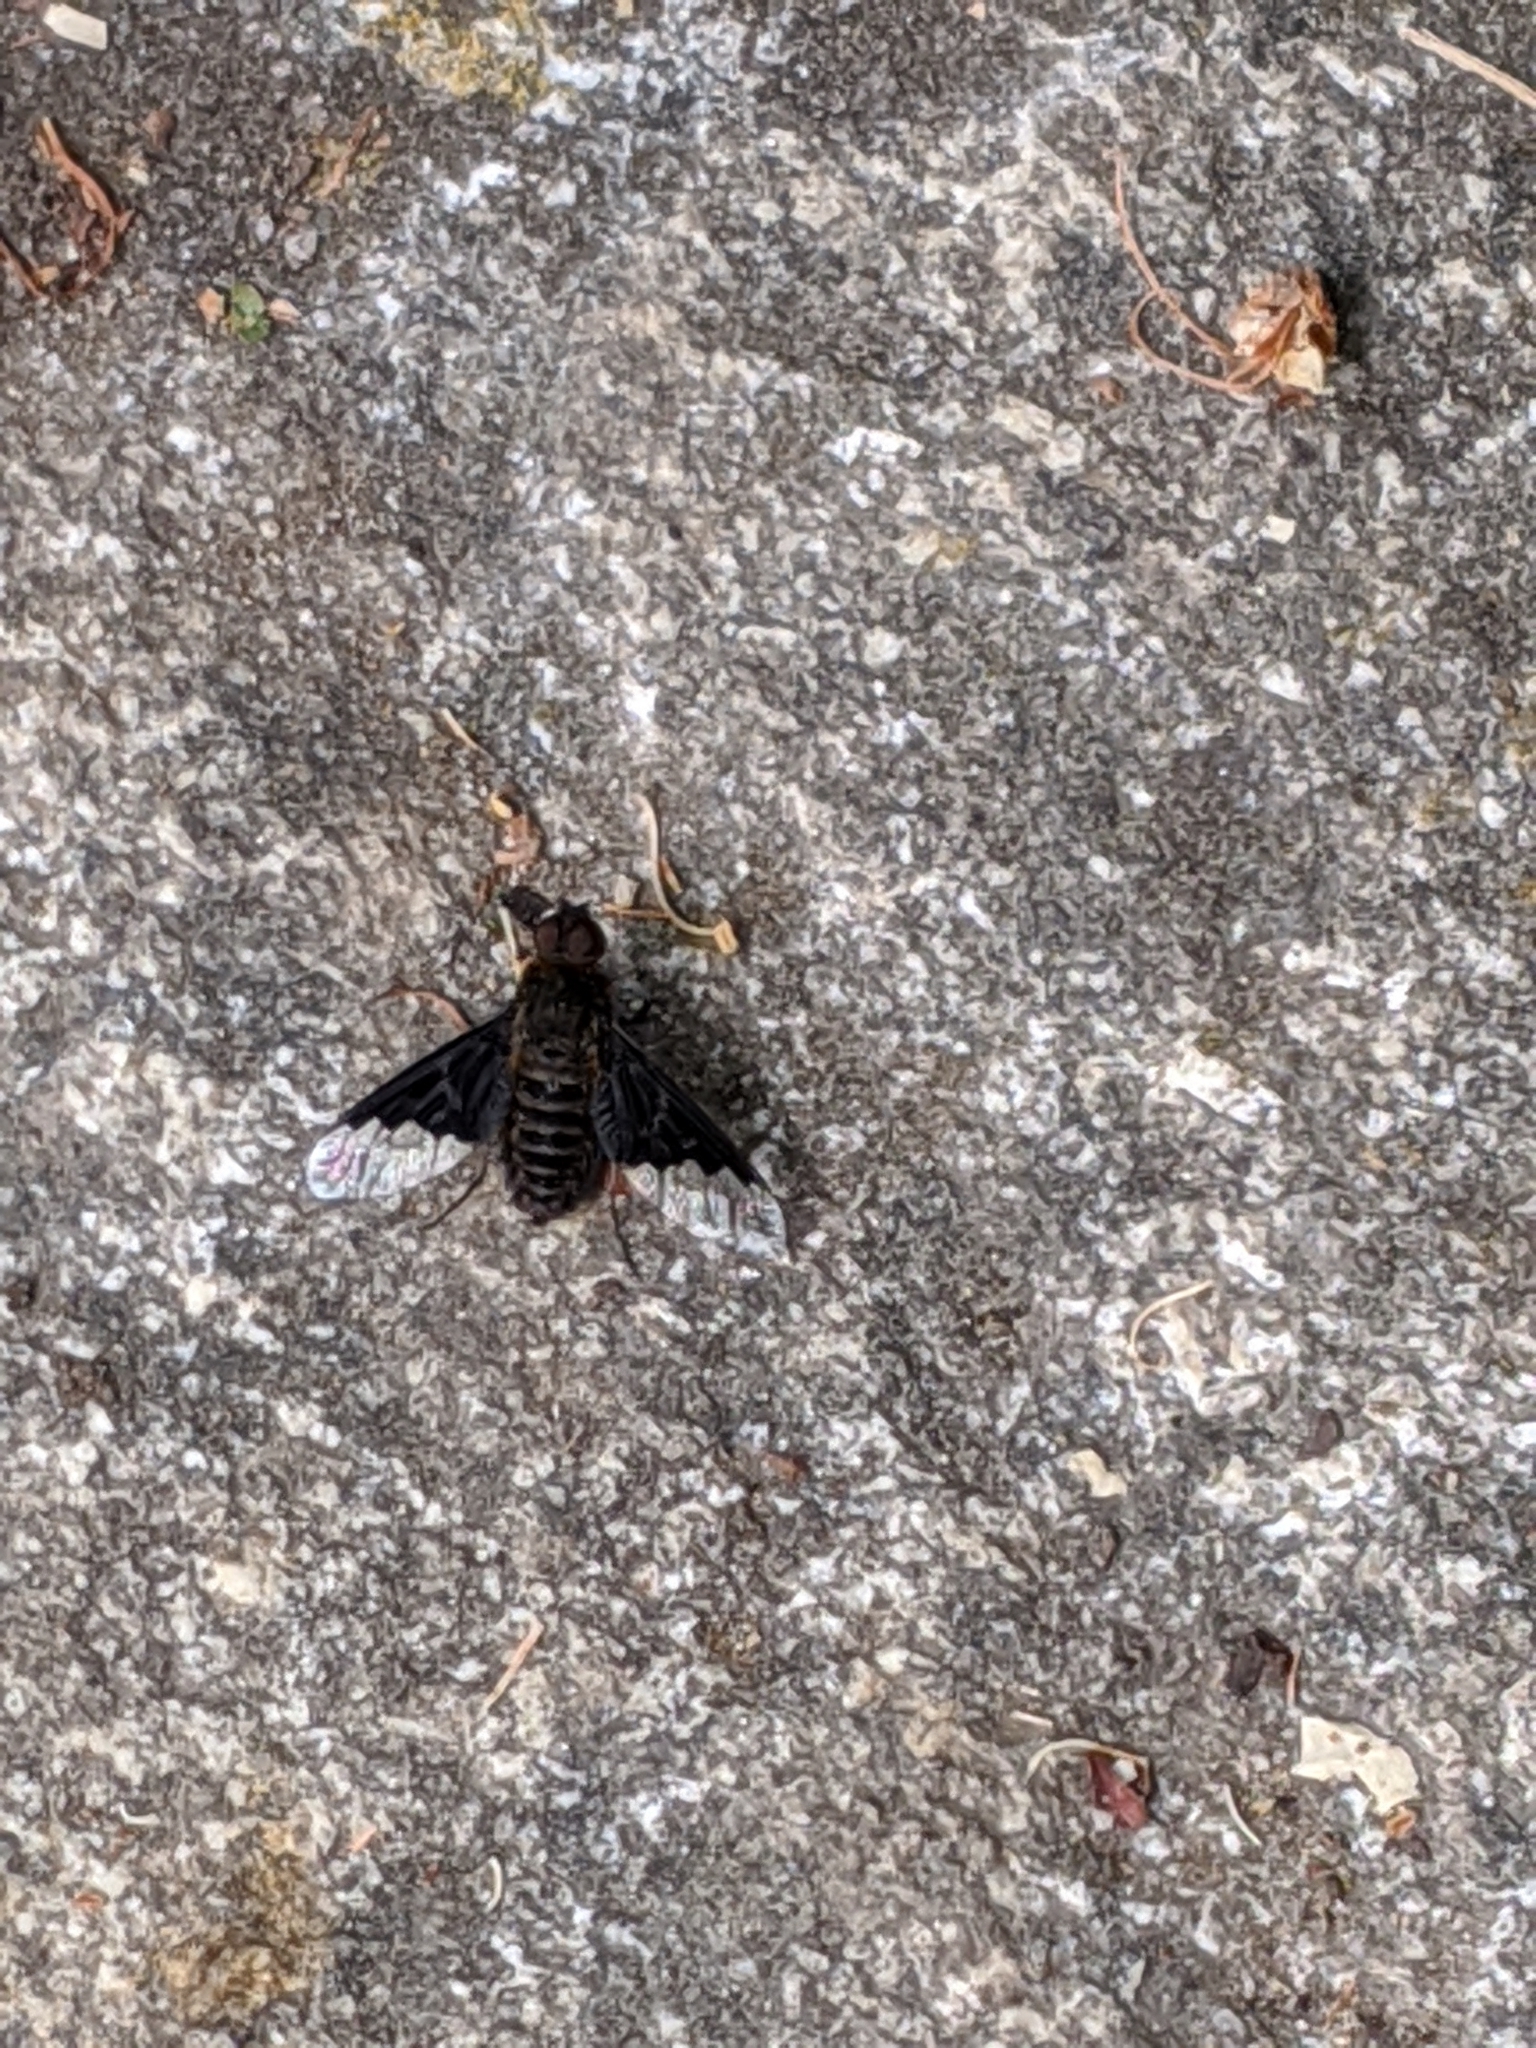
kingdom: Animalia
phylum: Arthropoda
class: Insecta
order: Diptera
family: Bombyliidae
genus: Hemipenthes
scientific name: Hemipenthes morio
